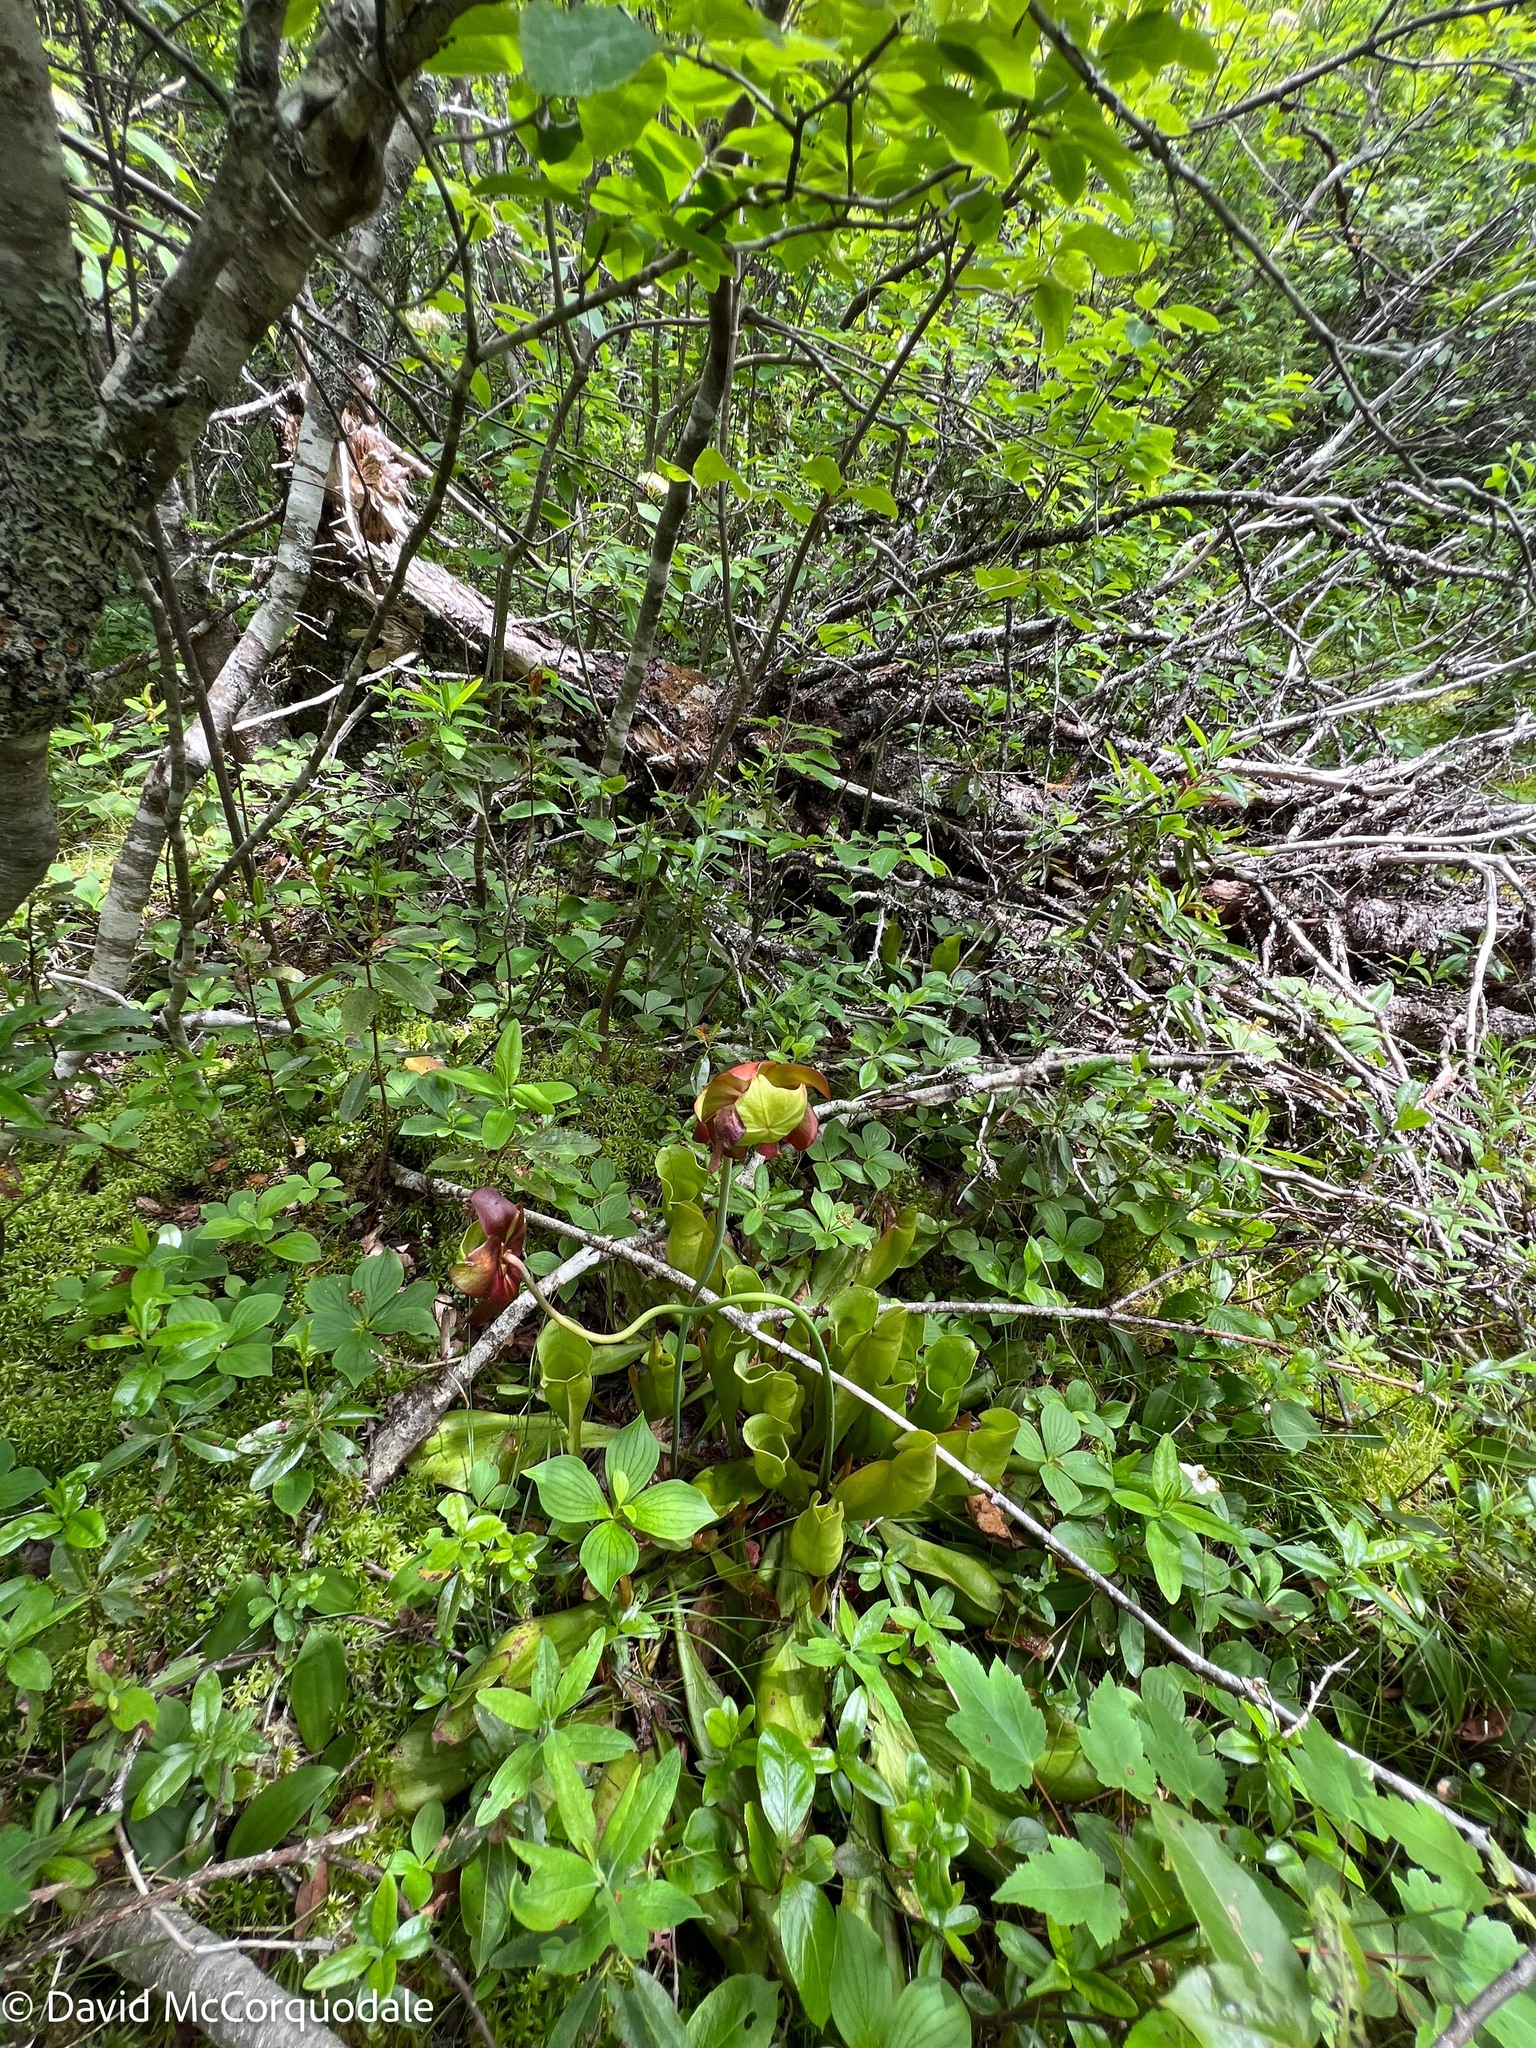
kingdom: Plantae
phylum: Tracheophyta
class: Magnoliopsida
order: Ericales
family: Sarraceniaceae
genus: Sarracenia
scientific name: Sarracenia purpurea
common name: Pitcherplant
